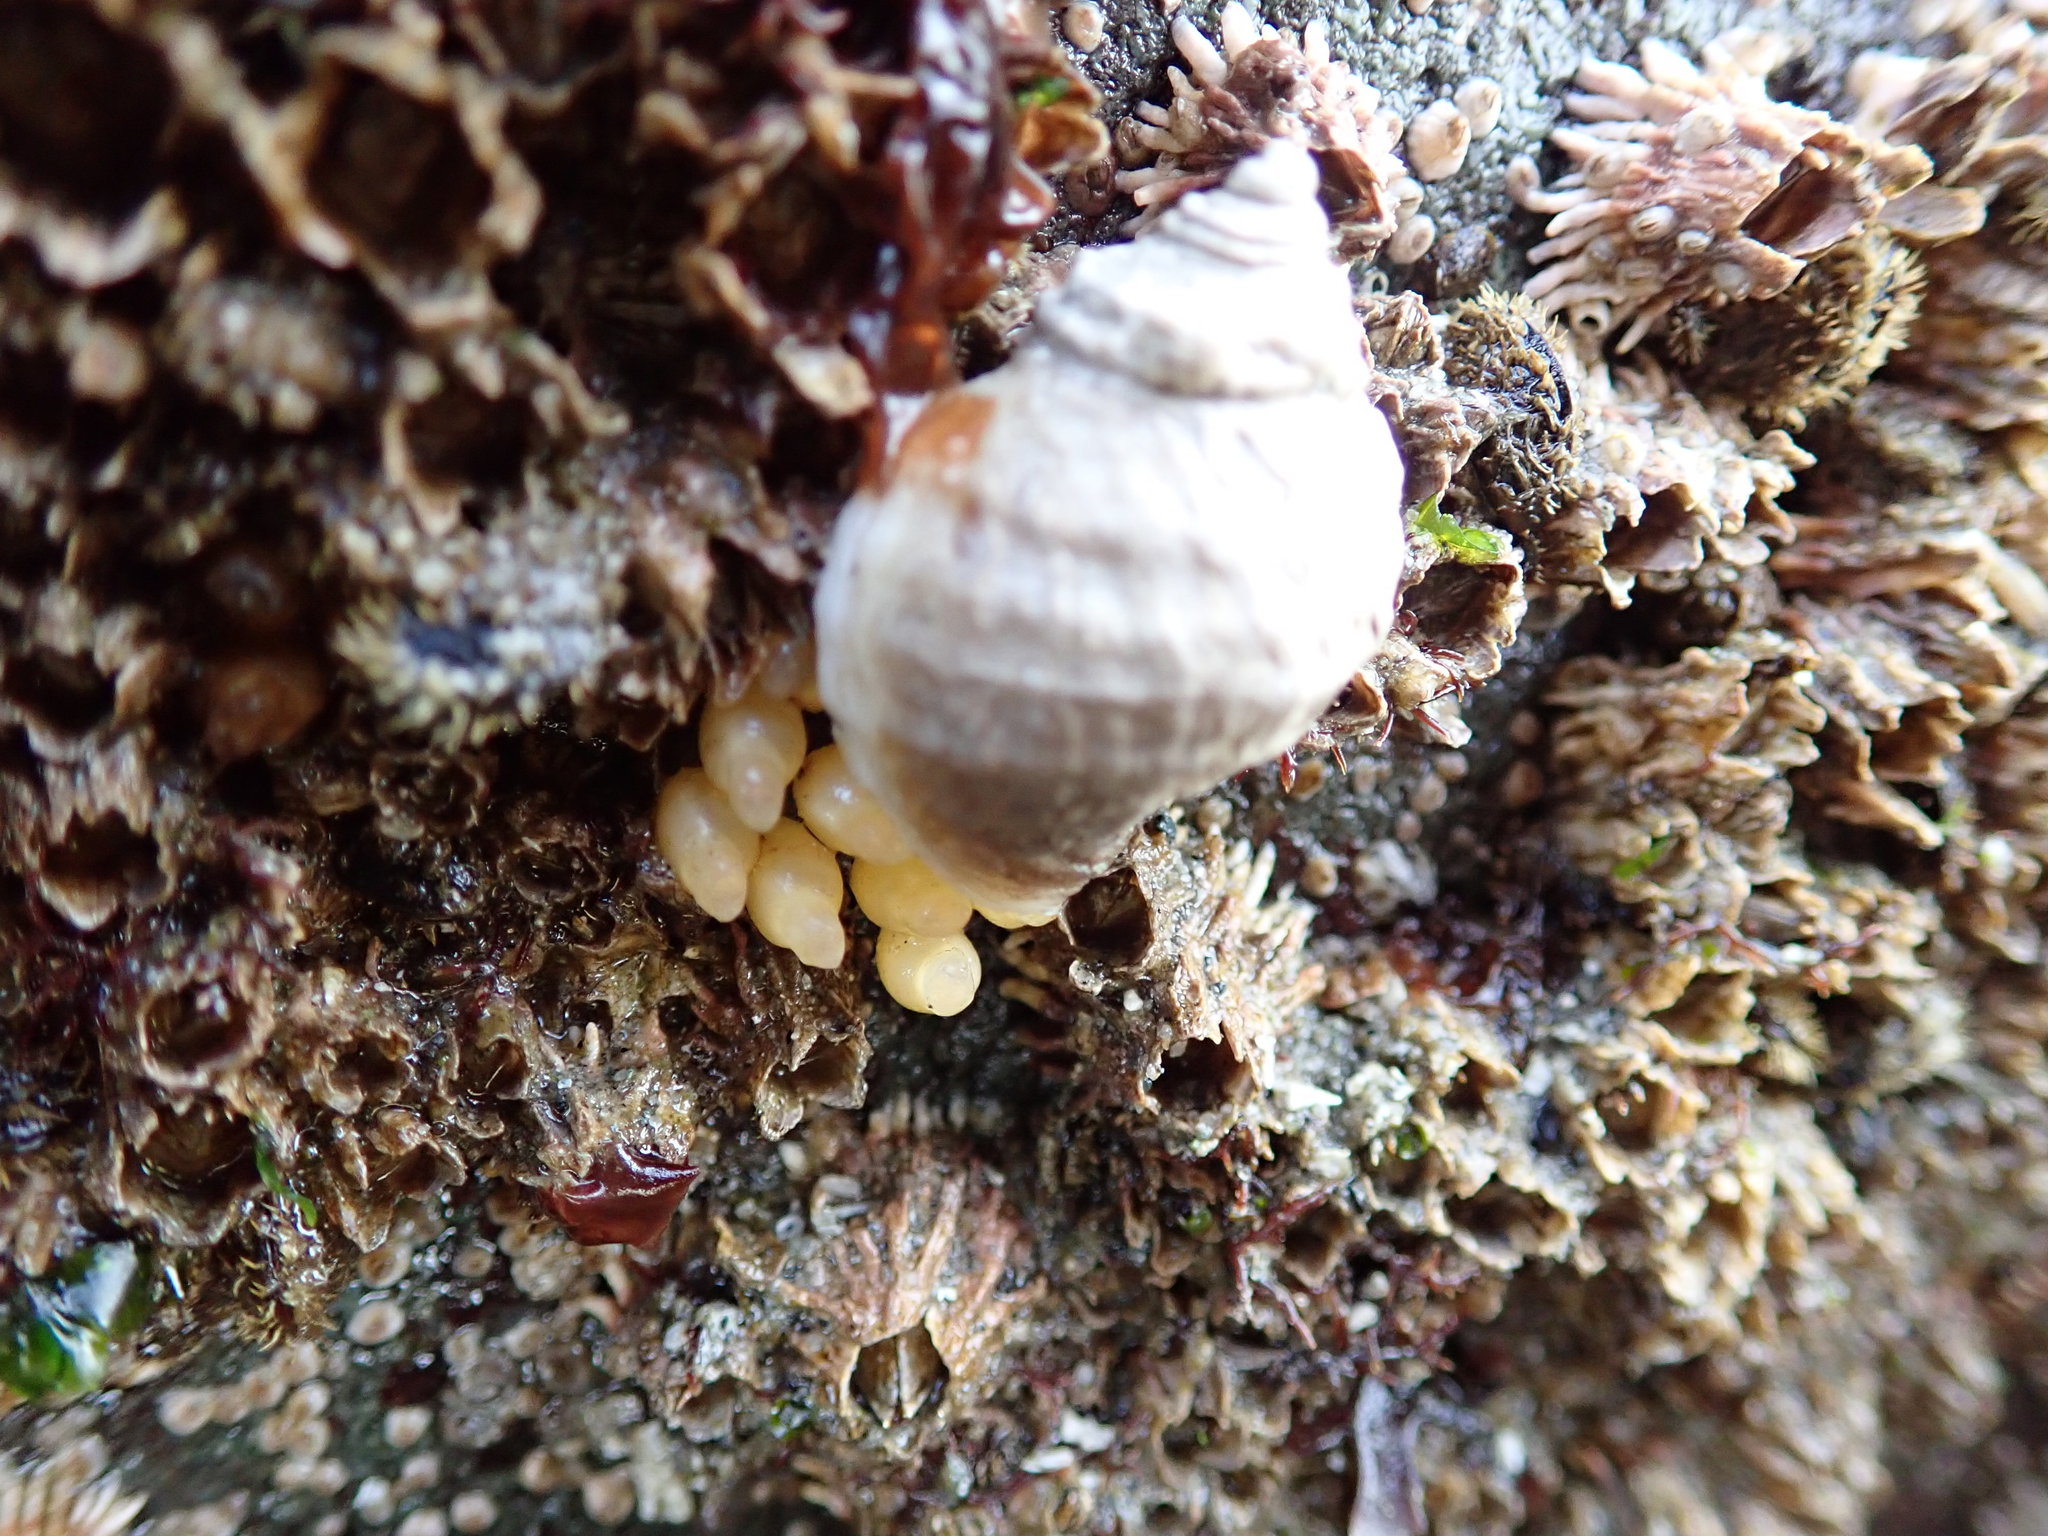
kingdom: Animalia
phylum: Mollusca
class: Gastropoda
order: Neogastropoda
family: Muricidae
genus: Nucella
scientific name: Nucella lamellosa
